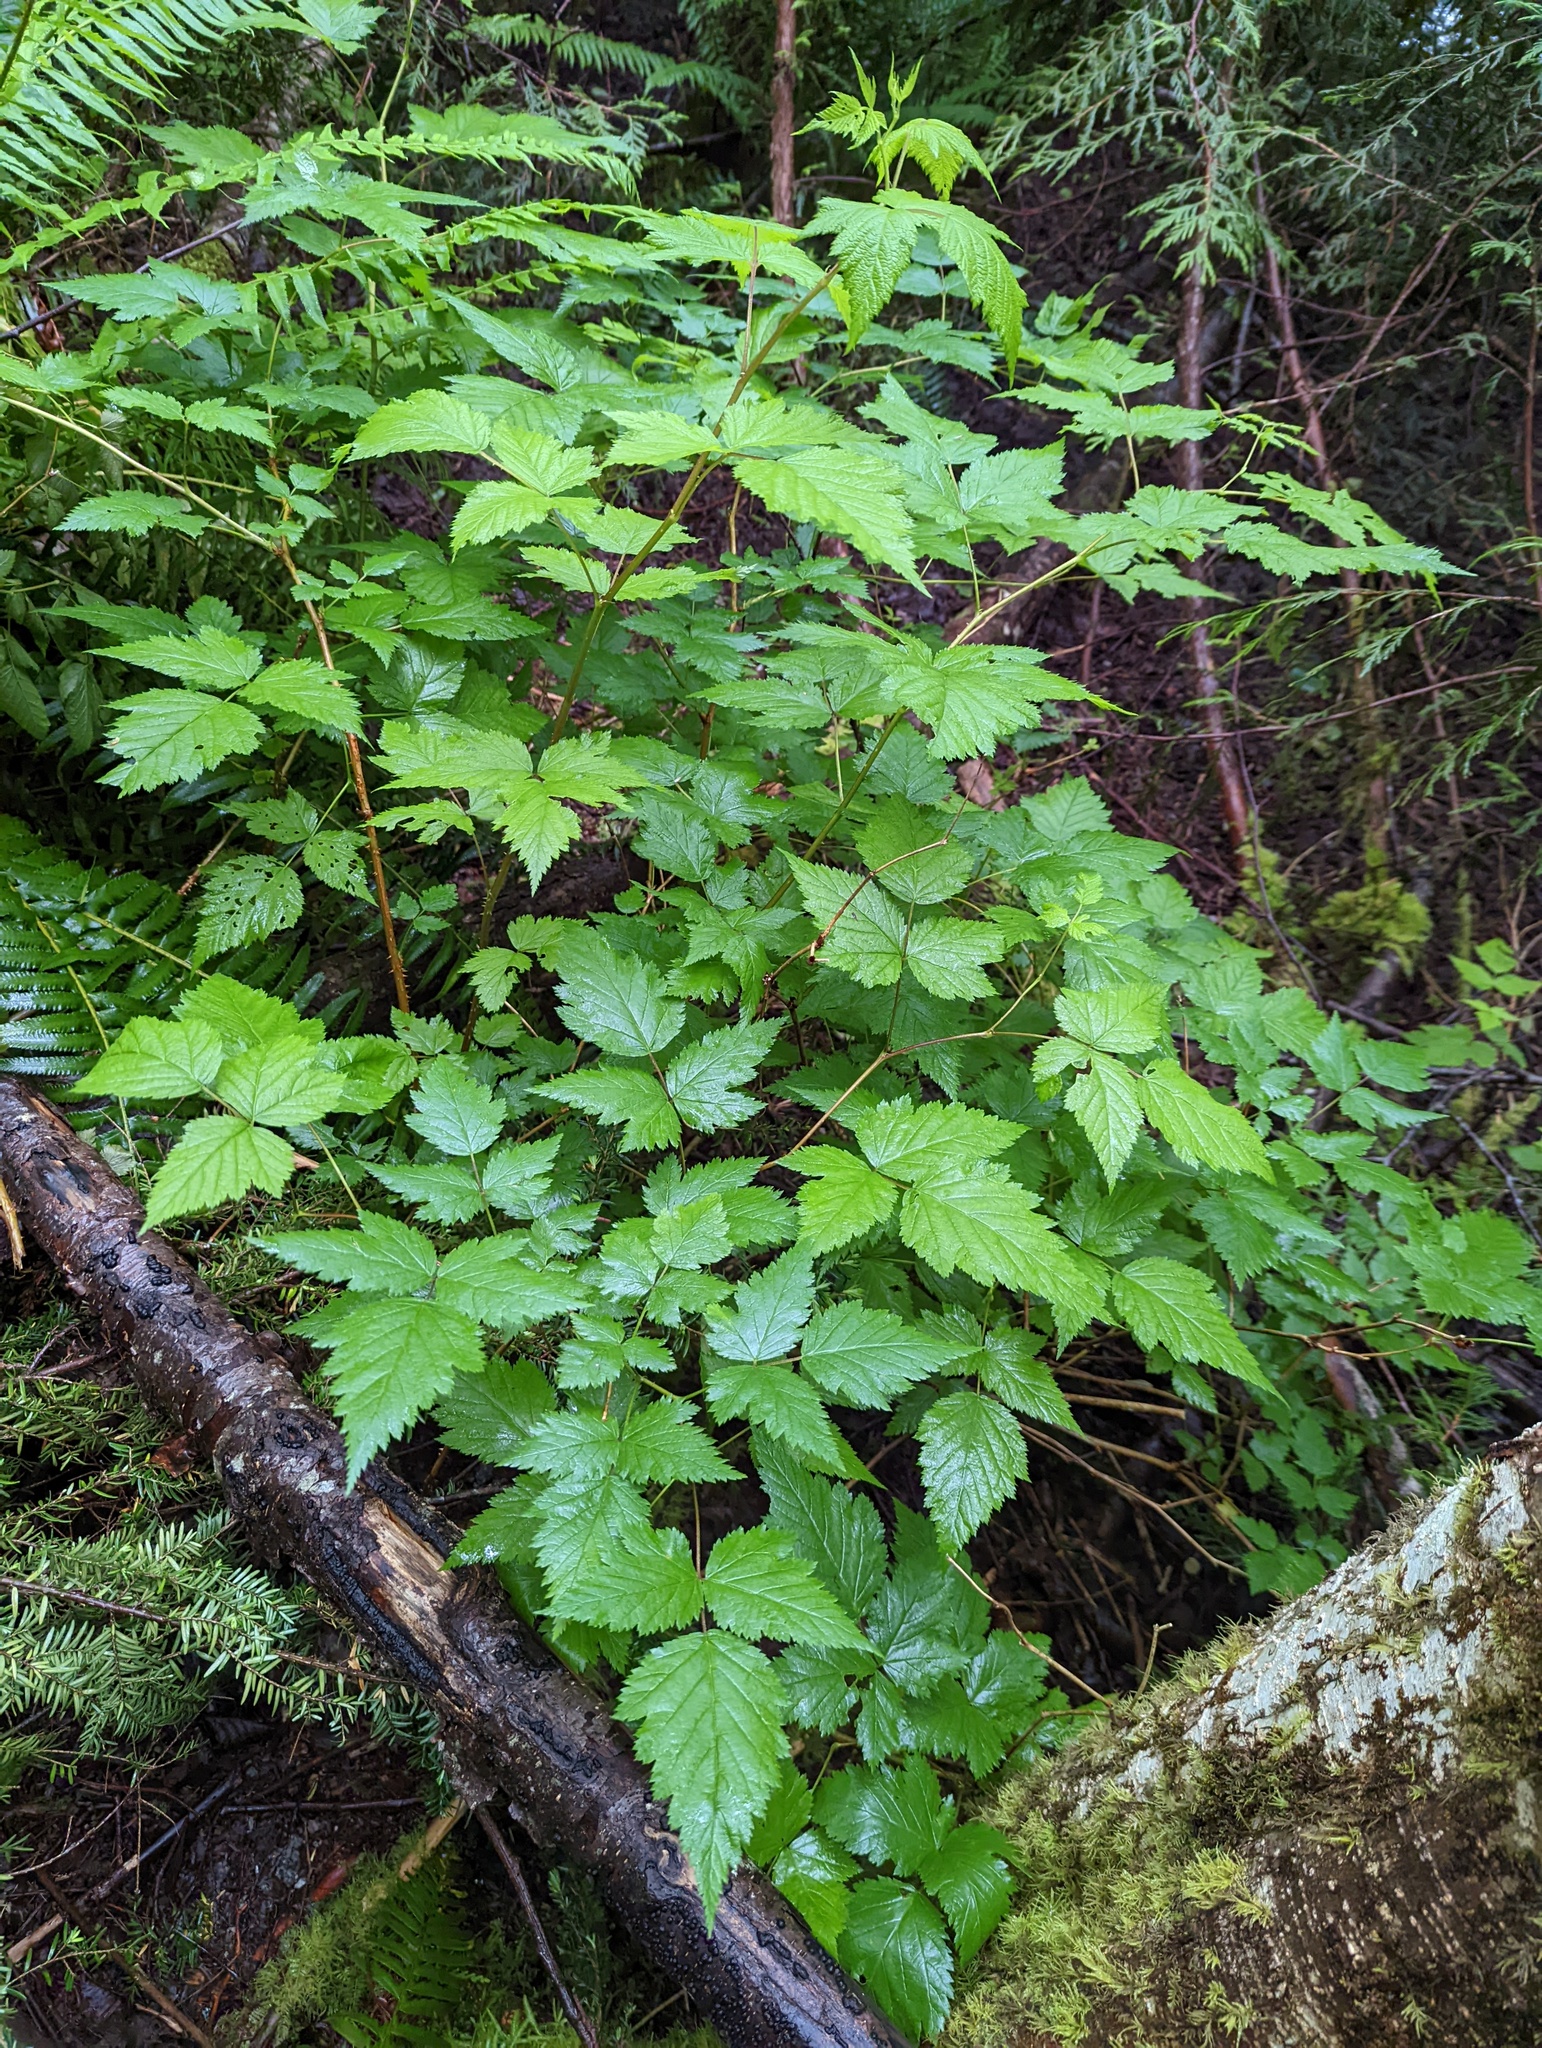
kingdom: Plantae
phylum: Tracheophyta
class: Magnoliopsida
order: Rosales
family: Rosaceae
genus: Rubus
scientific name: Rubus spectabilis
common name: Salmonberry
